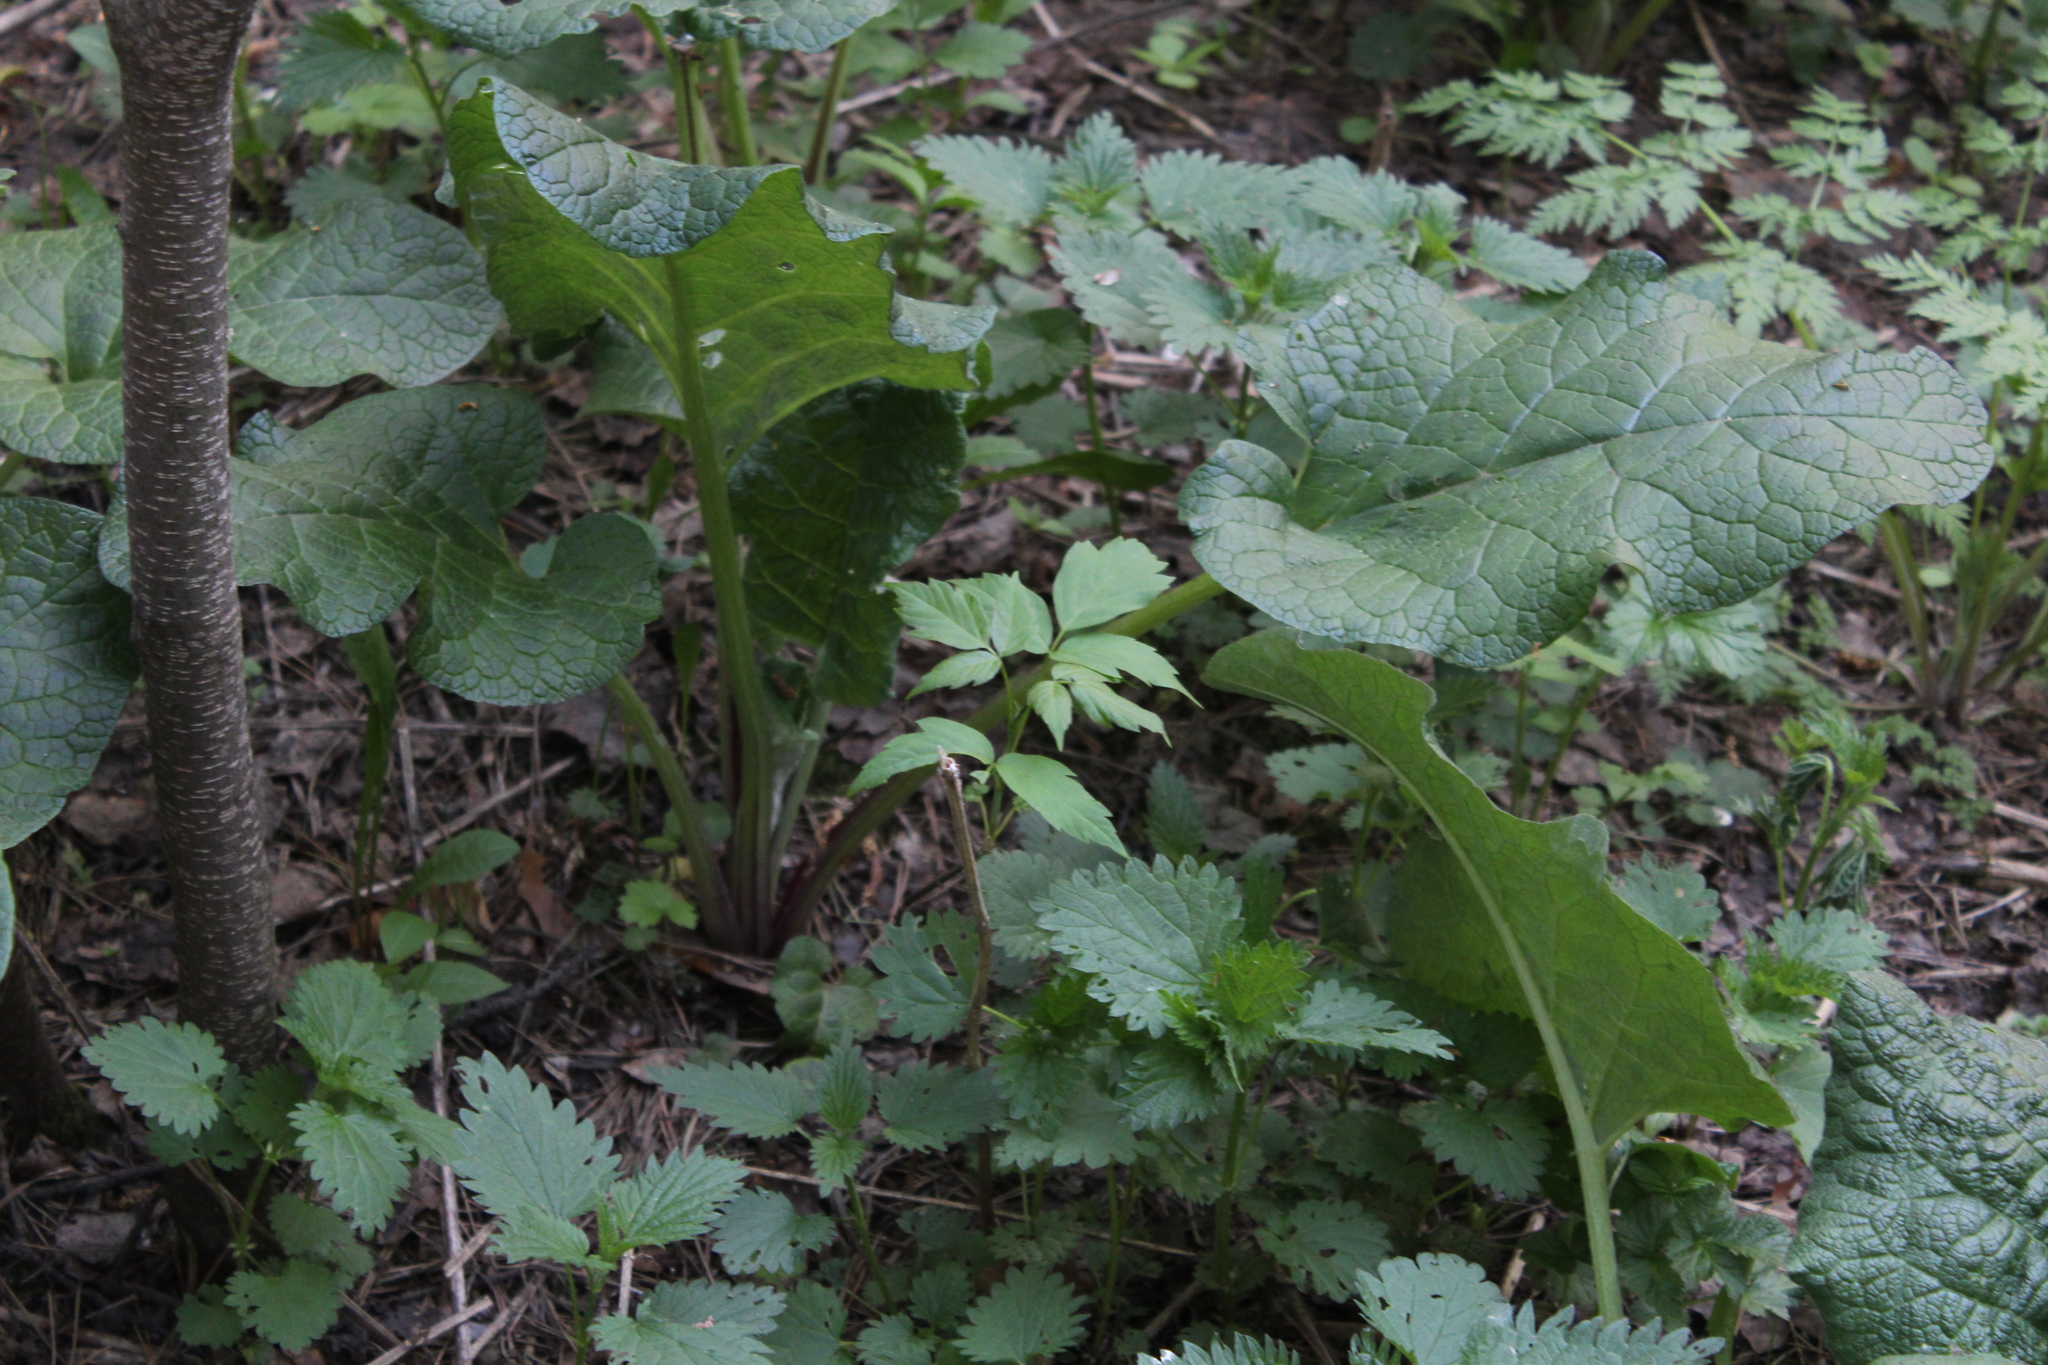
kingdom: Plantae
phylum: Tracheophyta
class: Magnoliopsida
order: Sapindales
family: Sapindaceae
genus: Acer
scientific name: Acer negundo
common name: Ashleaf maple
